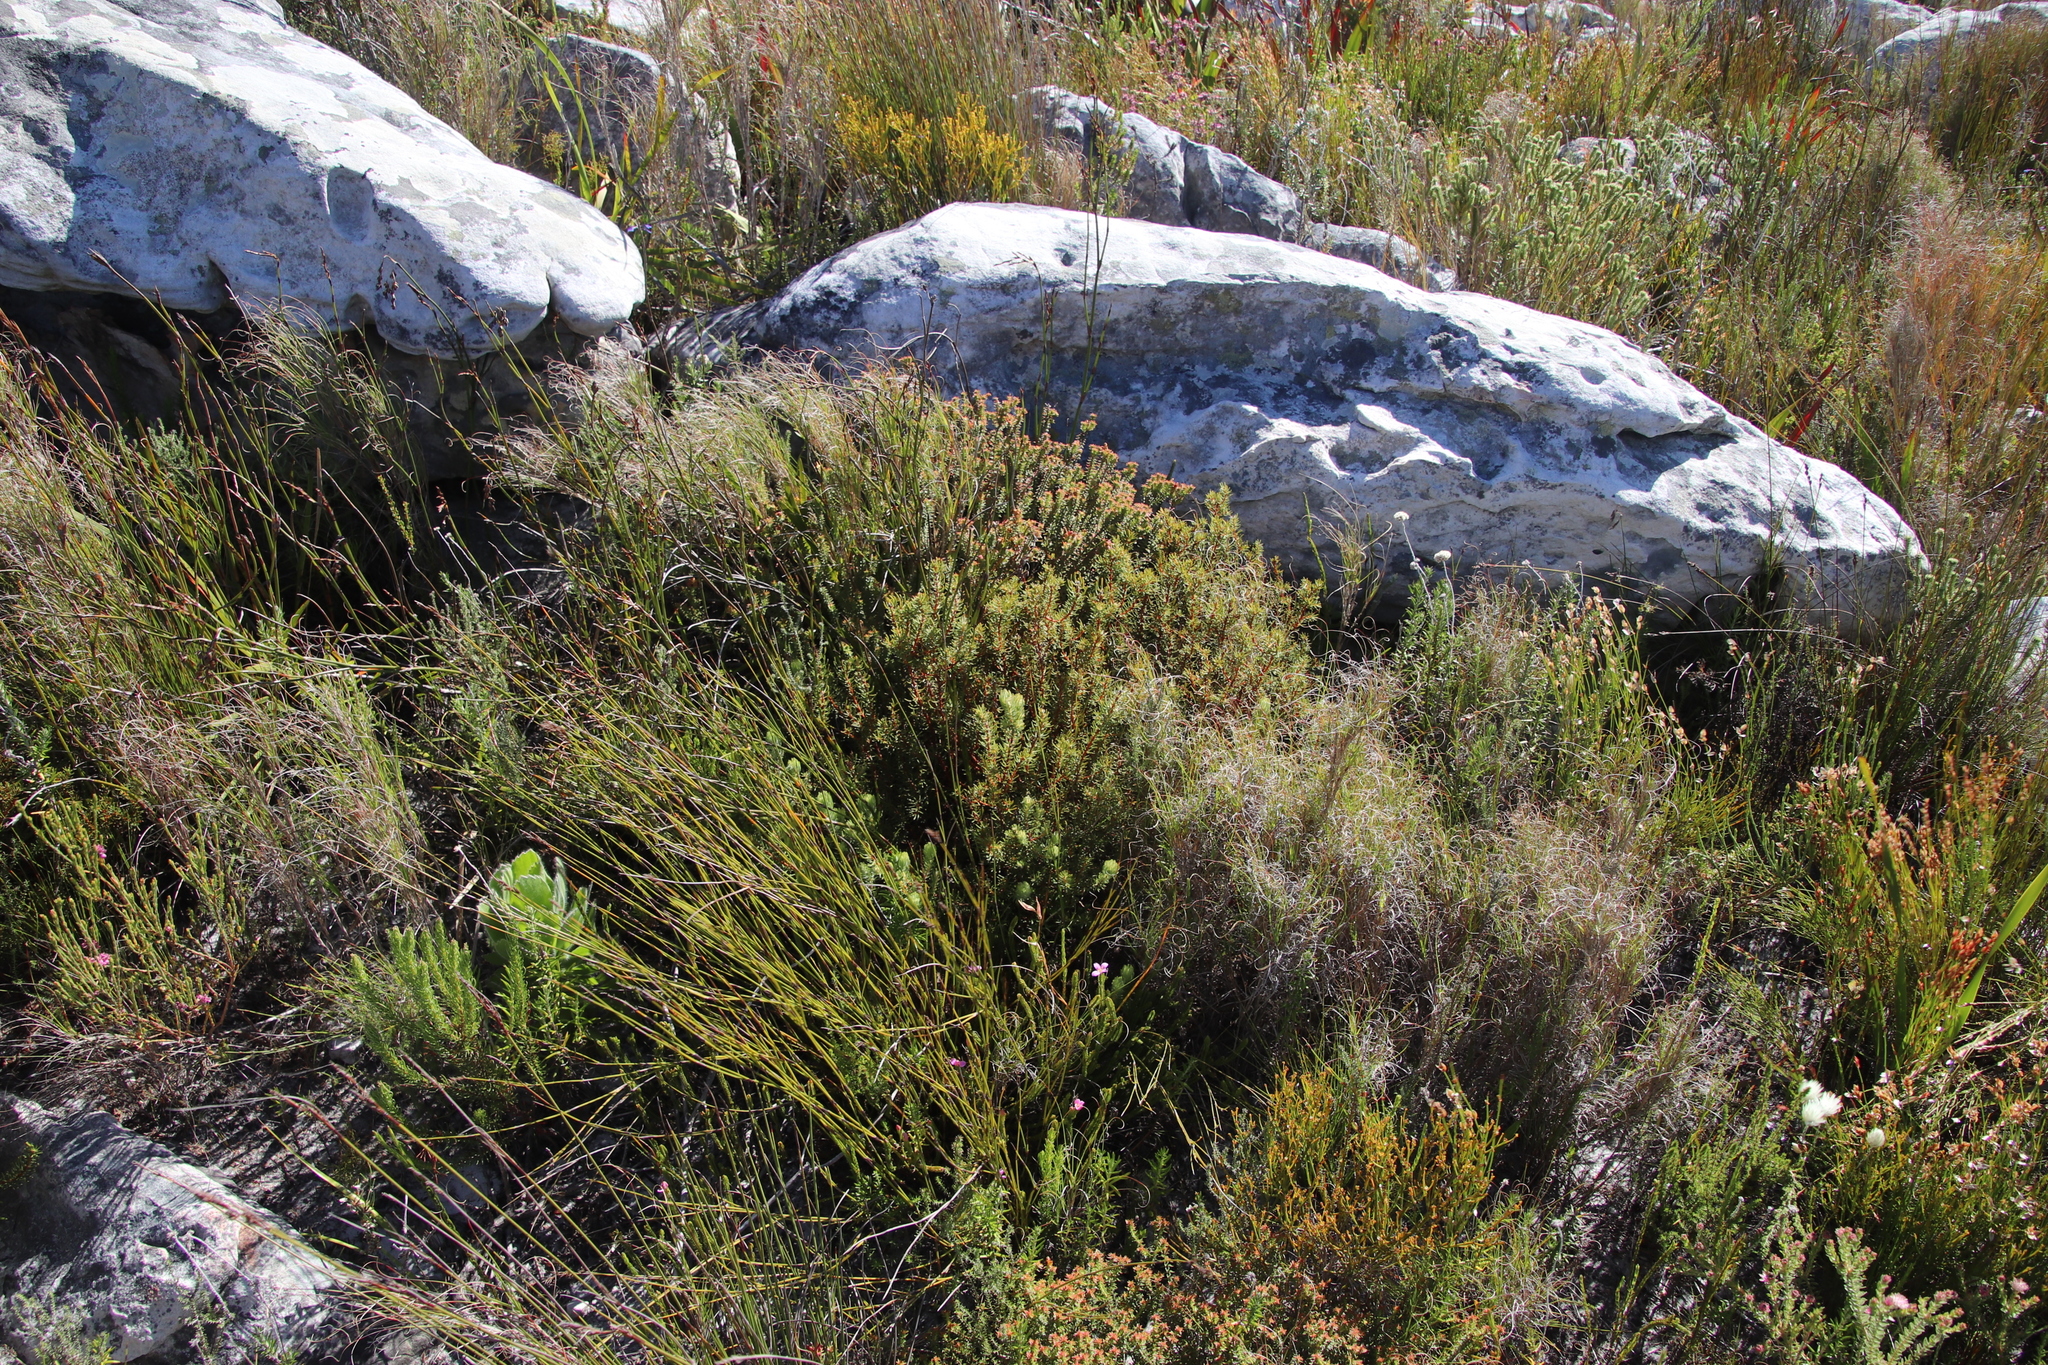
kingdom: Plantae
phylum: Tracheophyta
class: Magnoliopsida
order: Cornales
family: Grubbiaceae
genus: Grubbia
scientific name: Grubbia tomentosa
